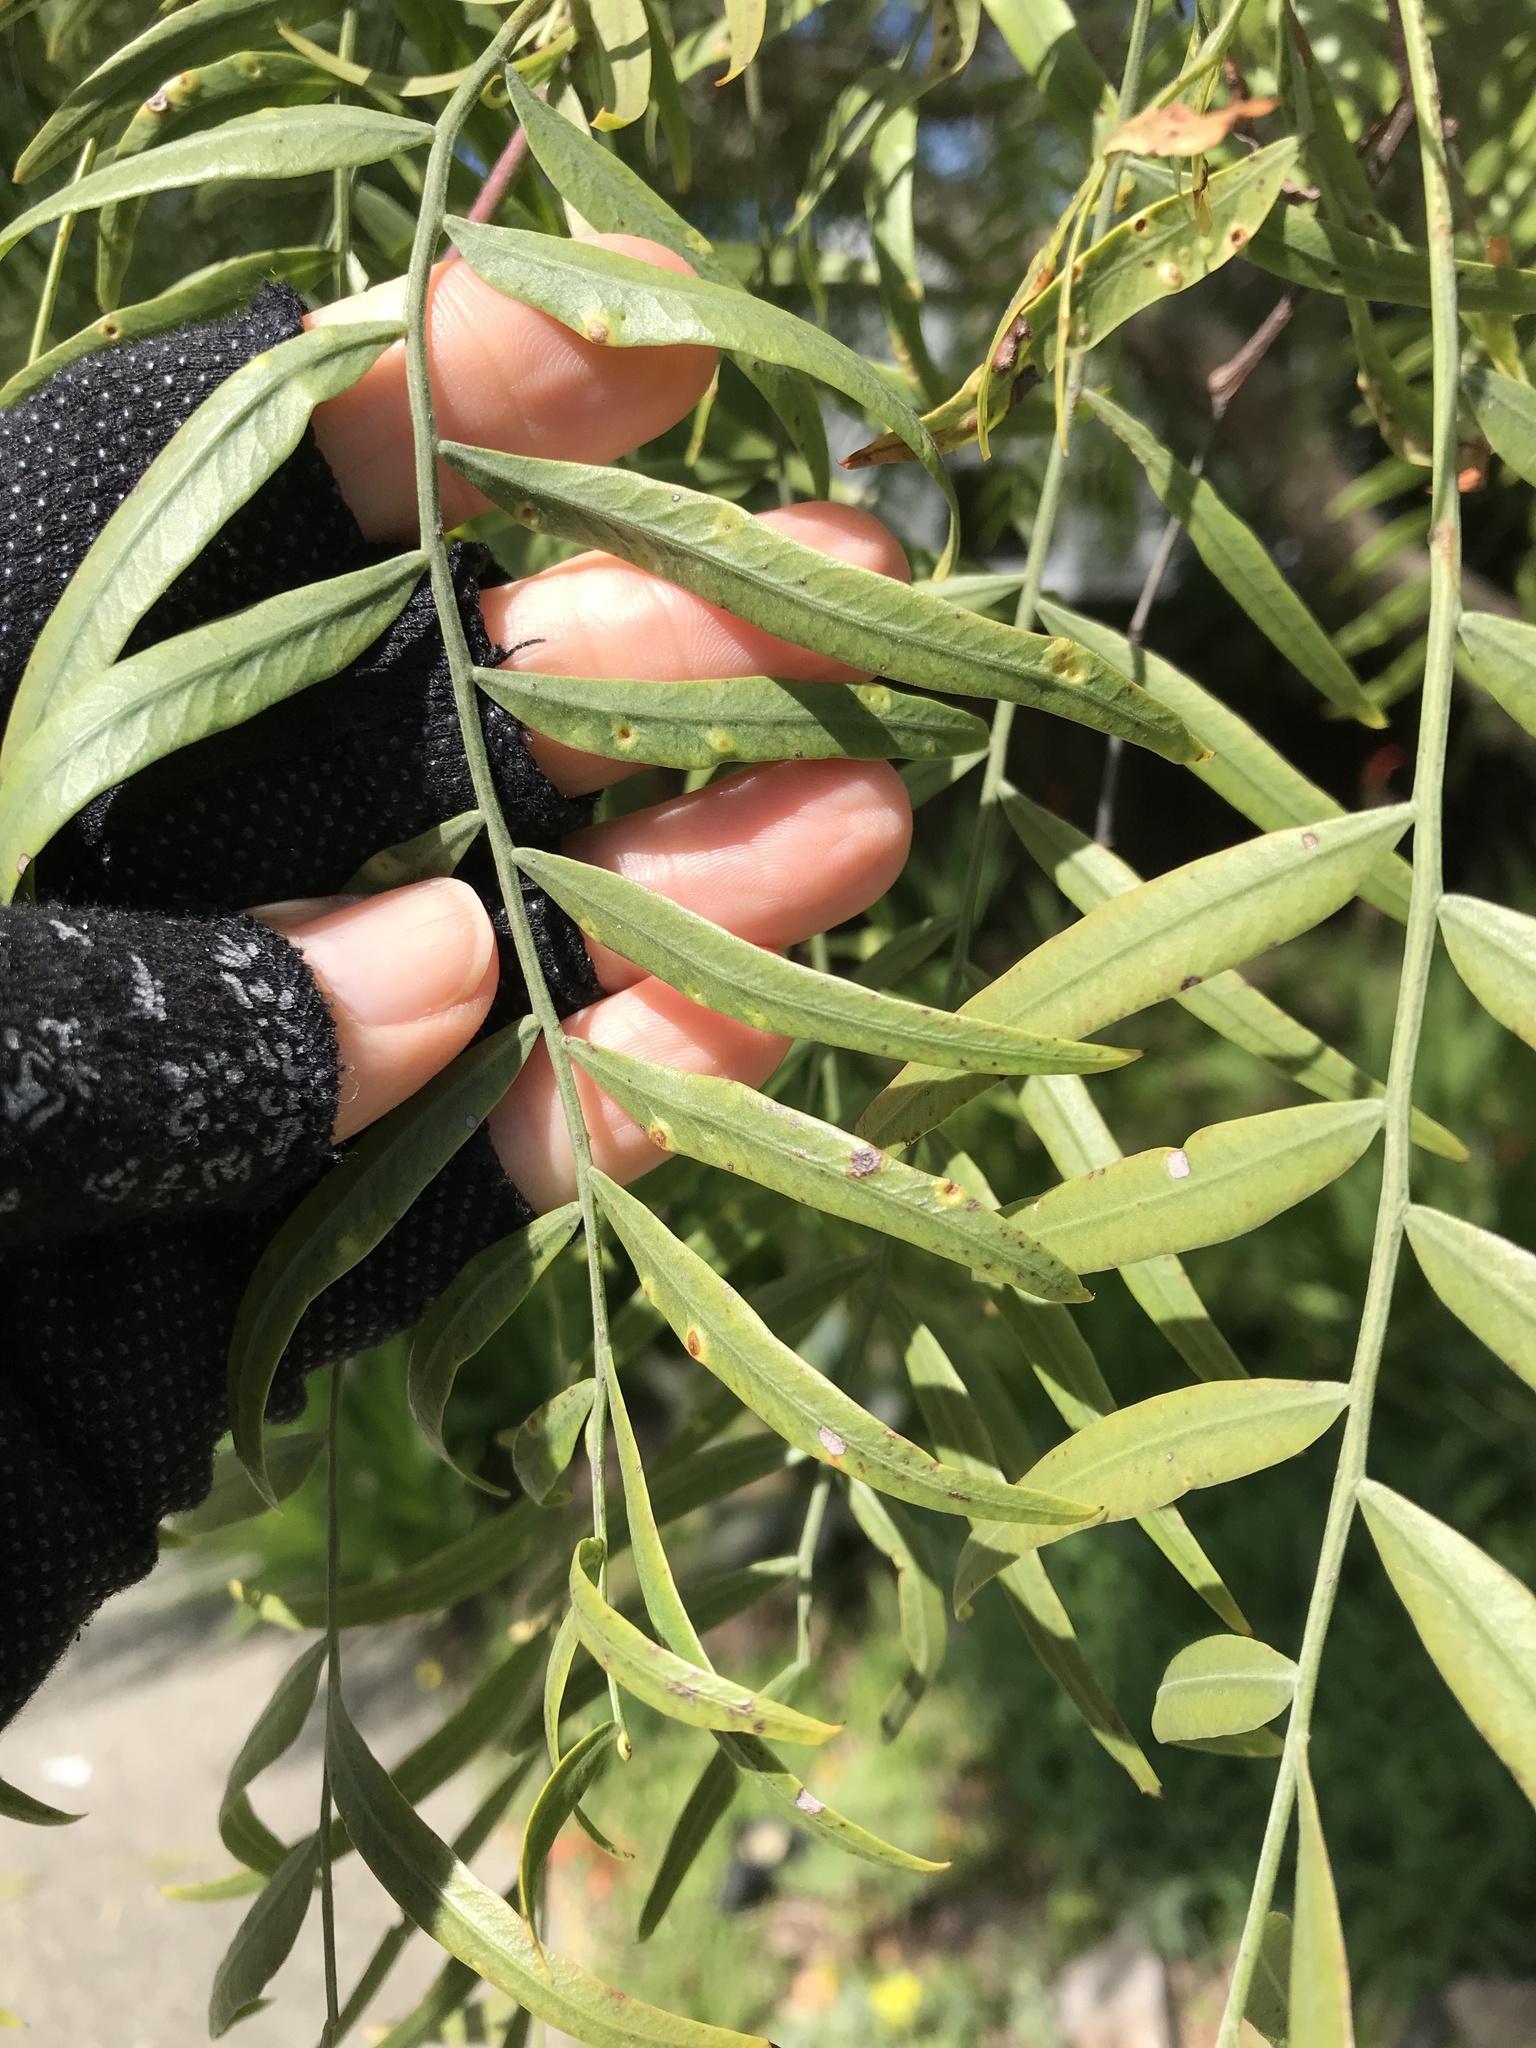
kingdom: Animalia
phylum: Arthropoda
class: Insecta
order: Hemiptera
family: Calophyidae
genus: Calophya
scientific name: Calophya schini
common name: Pepper tree psyllid
